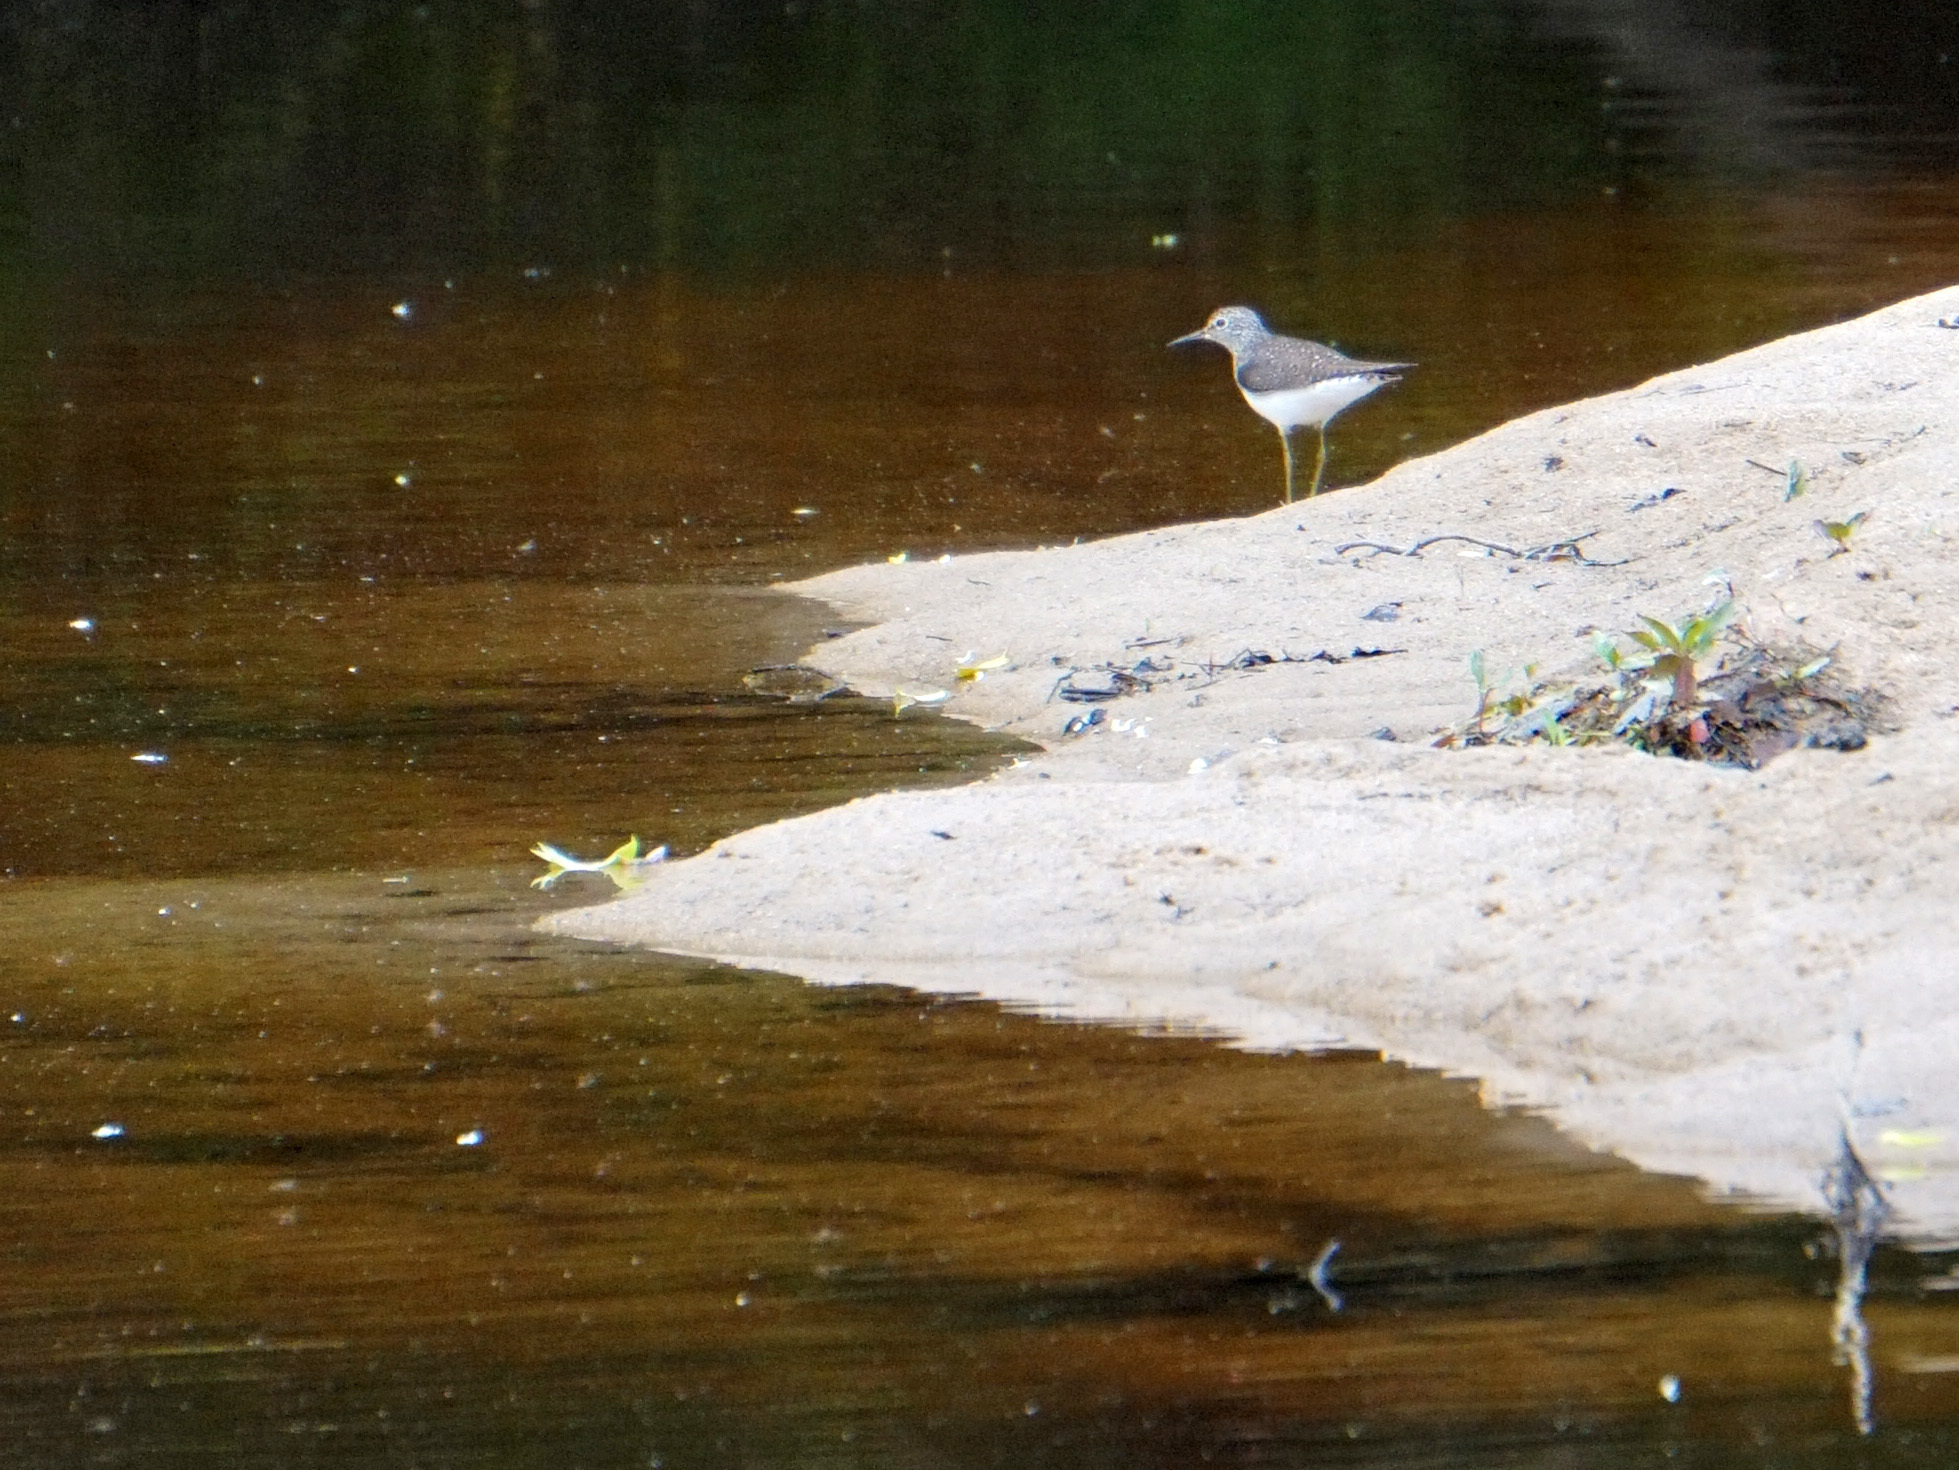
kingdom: Animalia
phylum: Chordata
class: Aves
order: Charadriiformes
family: Scolopacidae
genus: Tringa
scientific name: Tringa solitaria
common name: Solitary sandpiper
